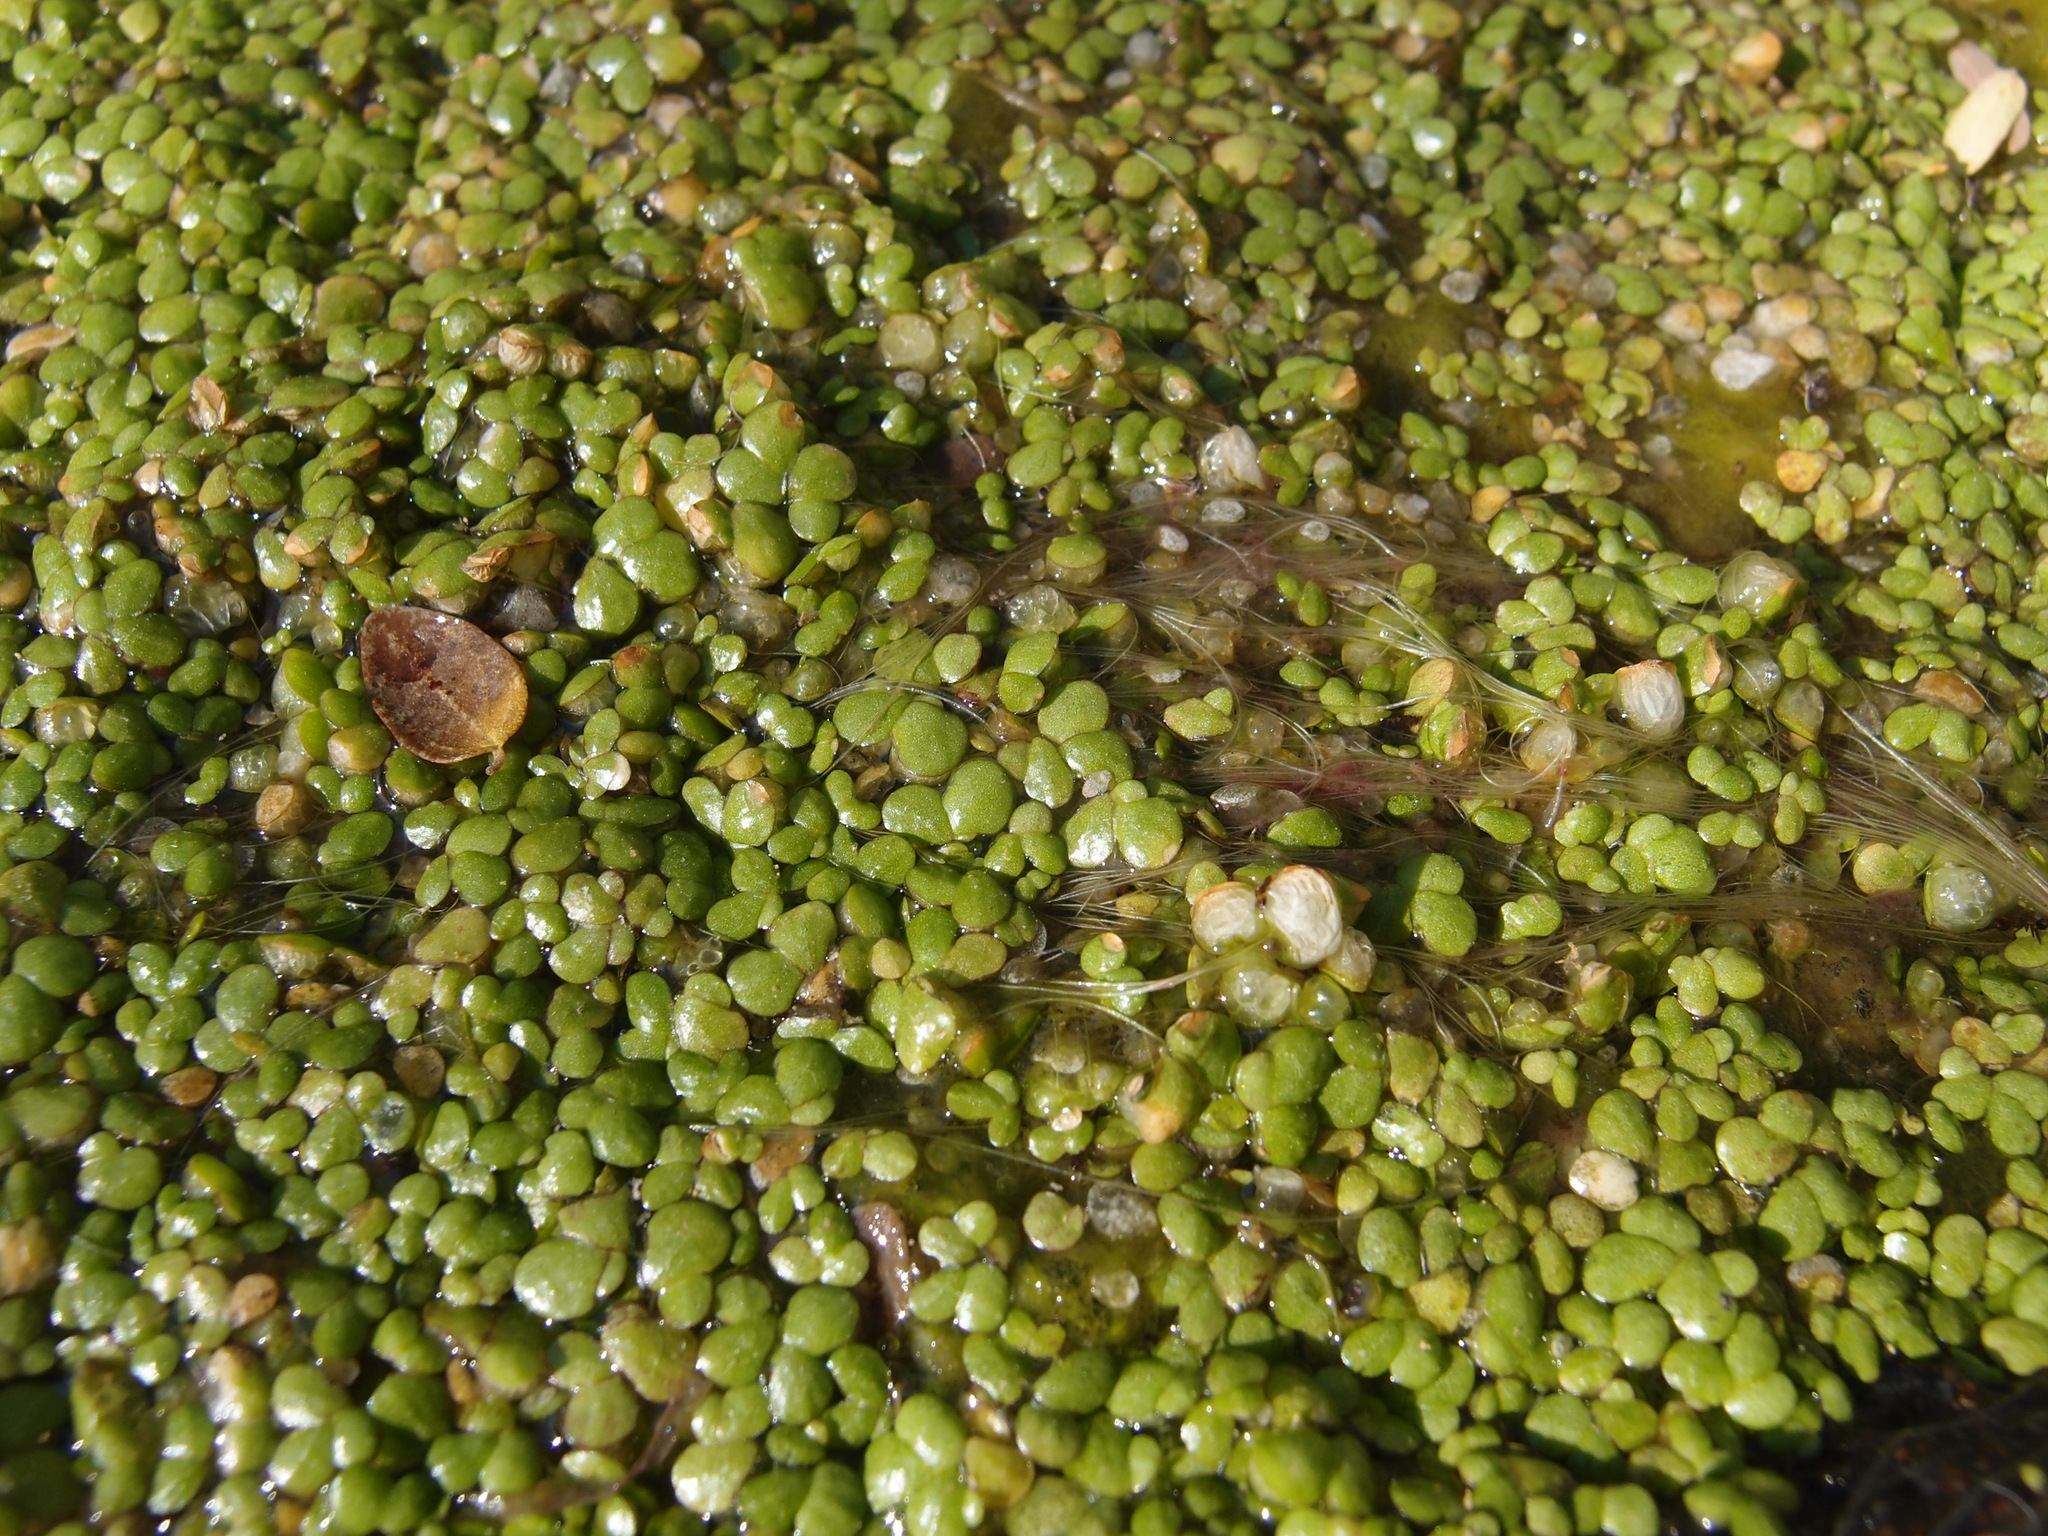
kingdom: Plantae
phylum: Tracheophyta
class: Liliopsida
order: Alismatales
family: Araceae
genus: Lemna
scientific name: Lemna gibba
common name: Fat duckweed
